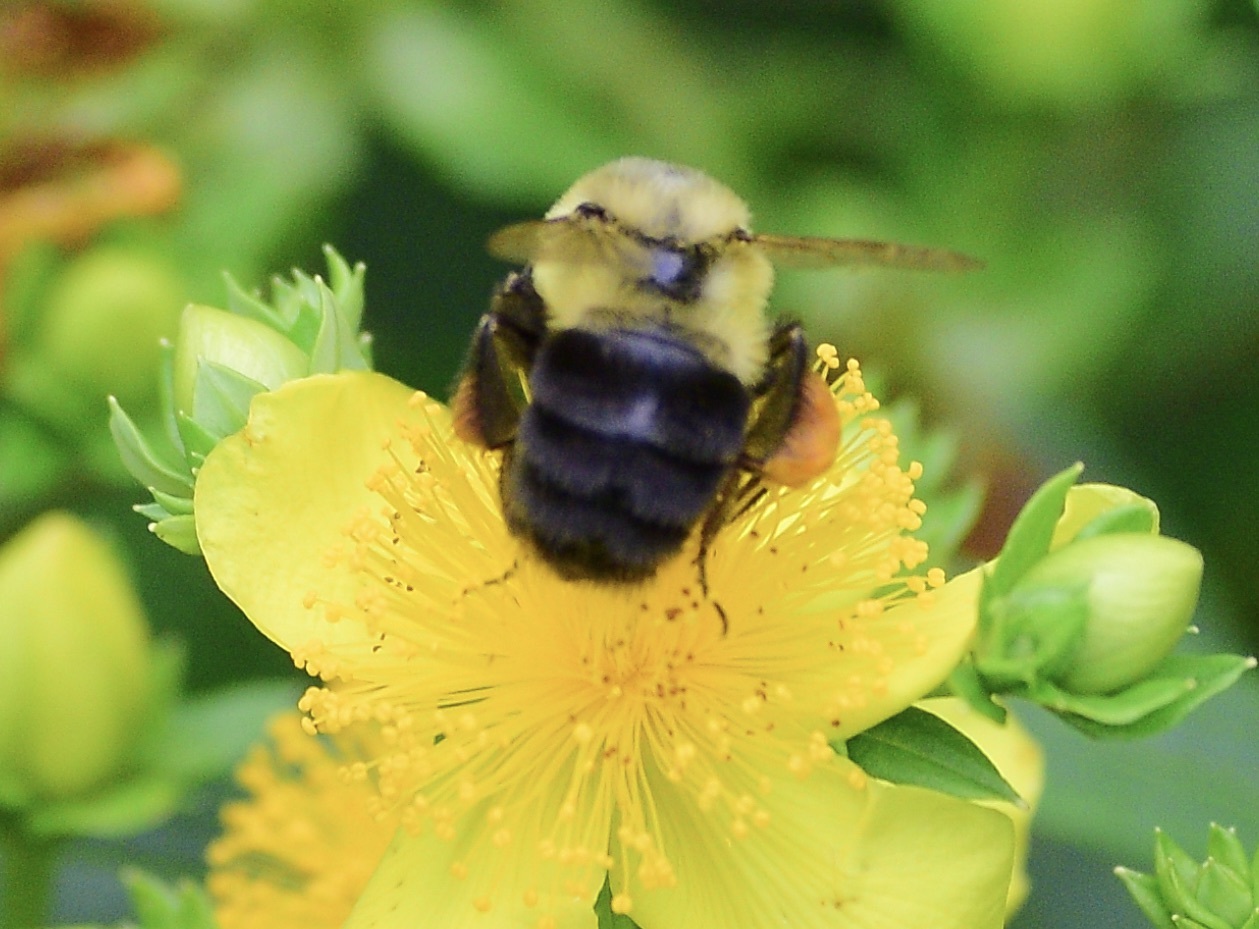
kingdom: Animalia
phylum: Arthropoda
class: Insecta
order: Hymenoptera
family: Apidae
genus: Bombus
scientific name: Bombus impatiens
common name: Common eastern bumble bee
